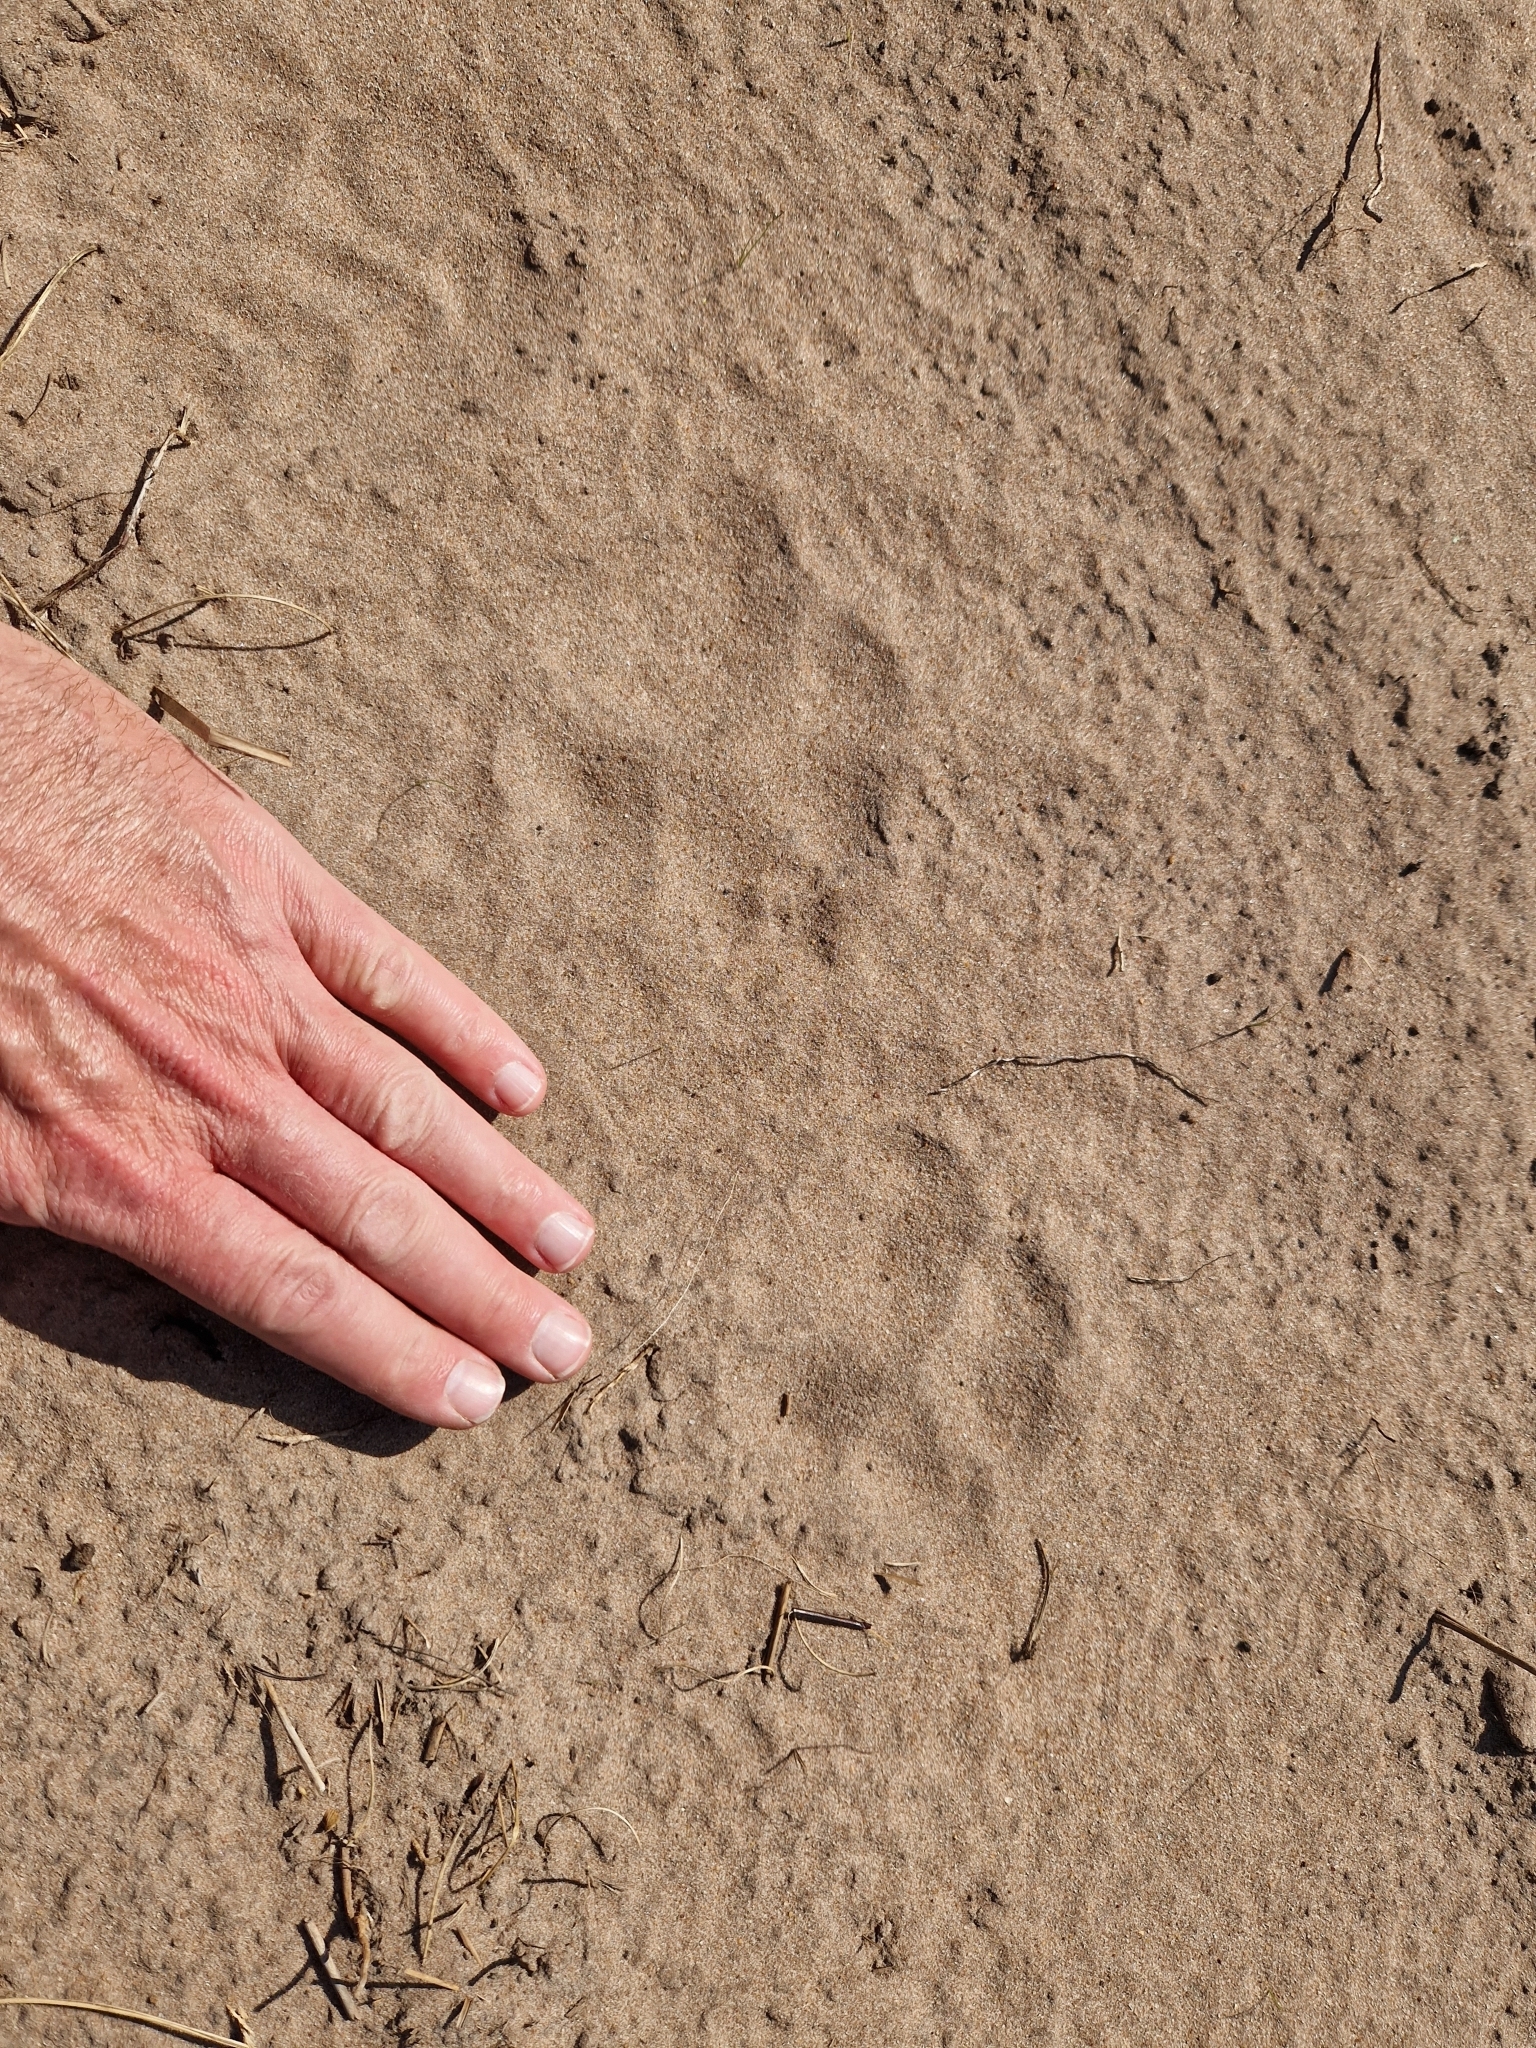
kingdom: Animalia
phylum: Chordata
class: Mammalia
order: Carnivora
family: Felidae
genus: Panthera
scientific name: Panthera onca
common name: Jaguar
